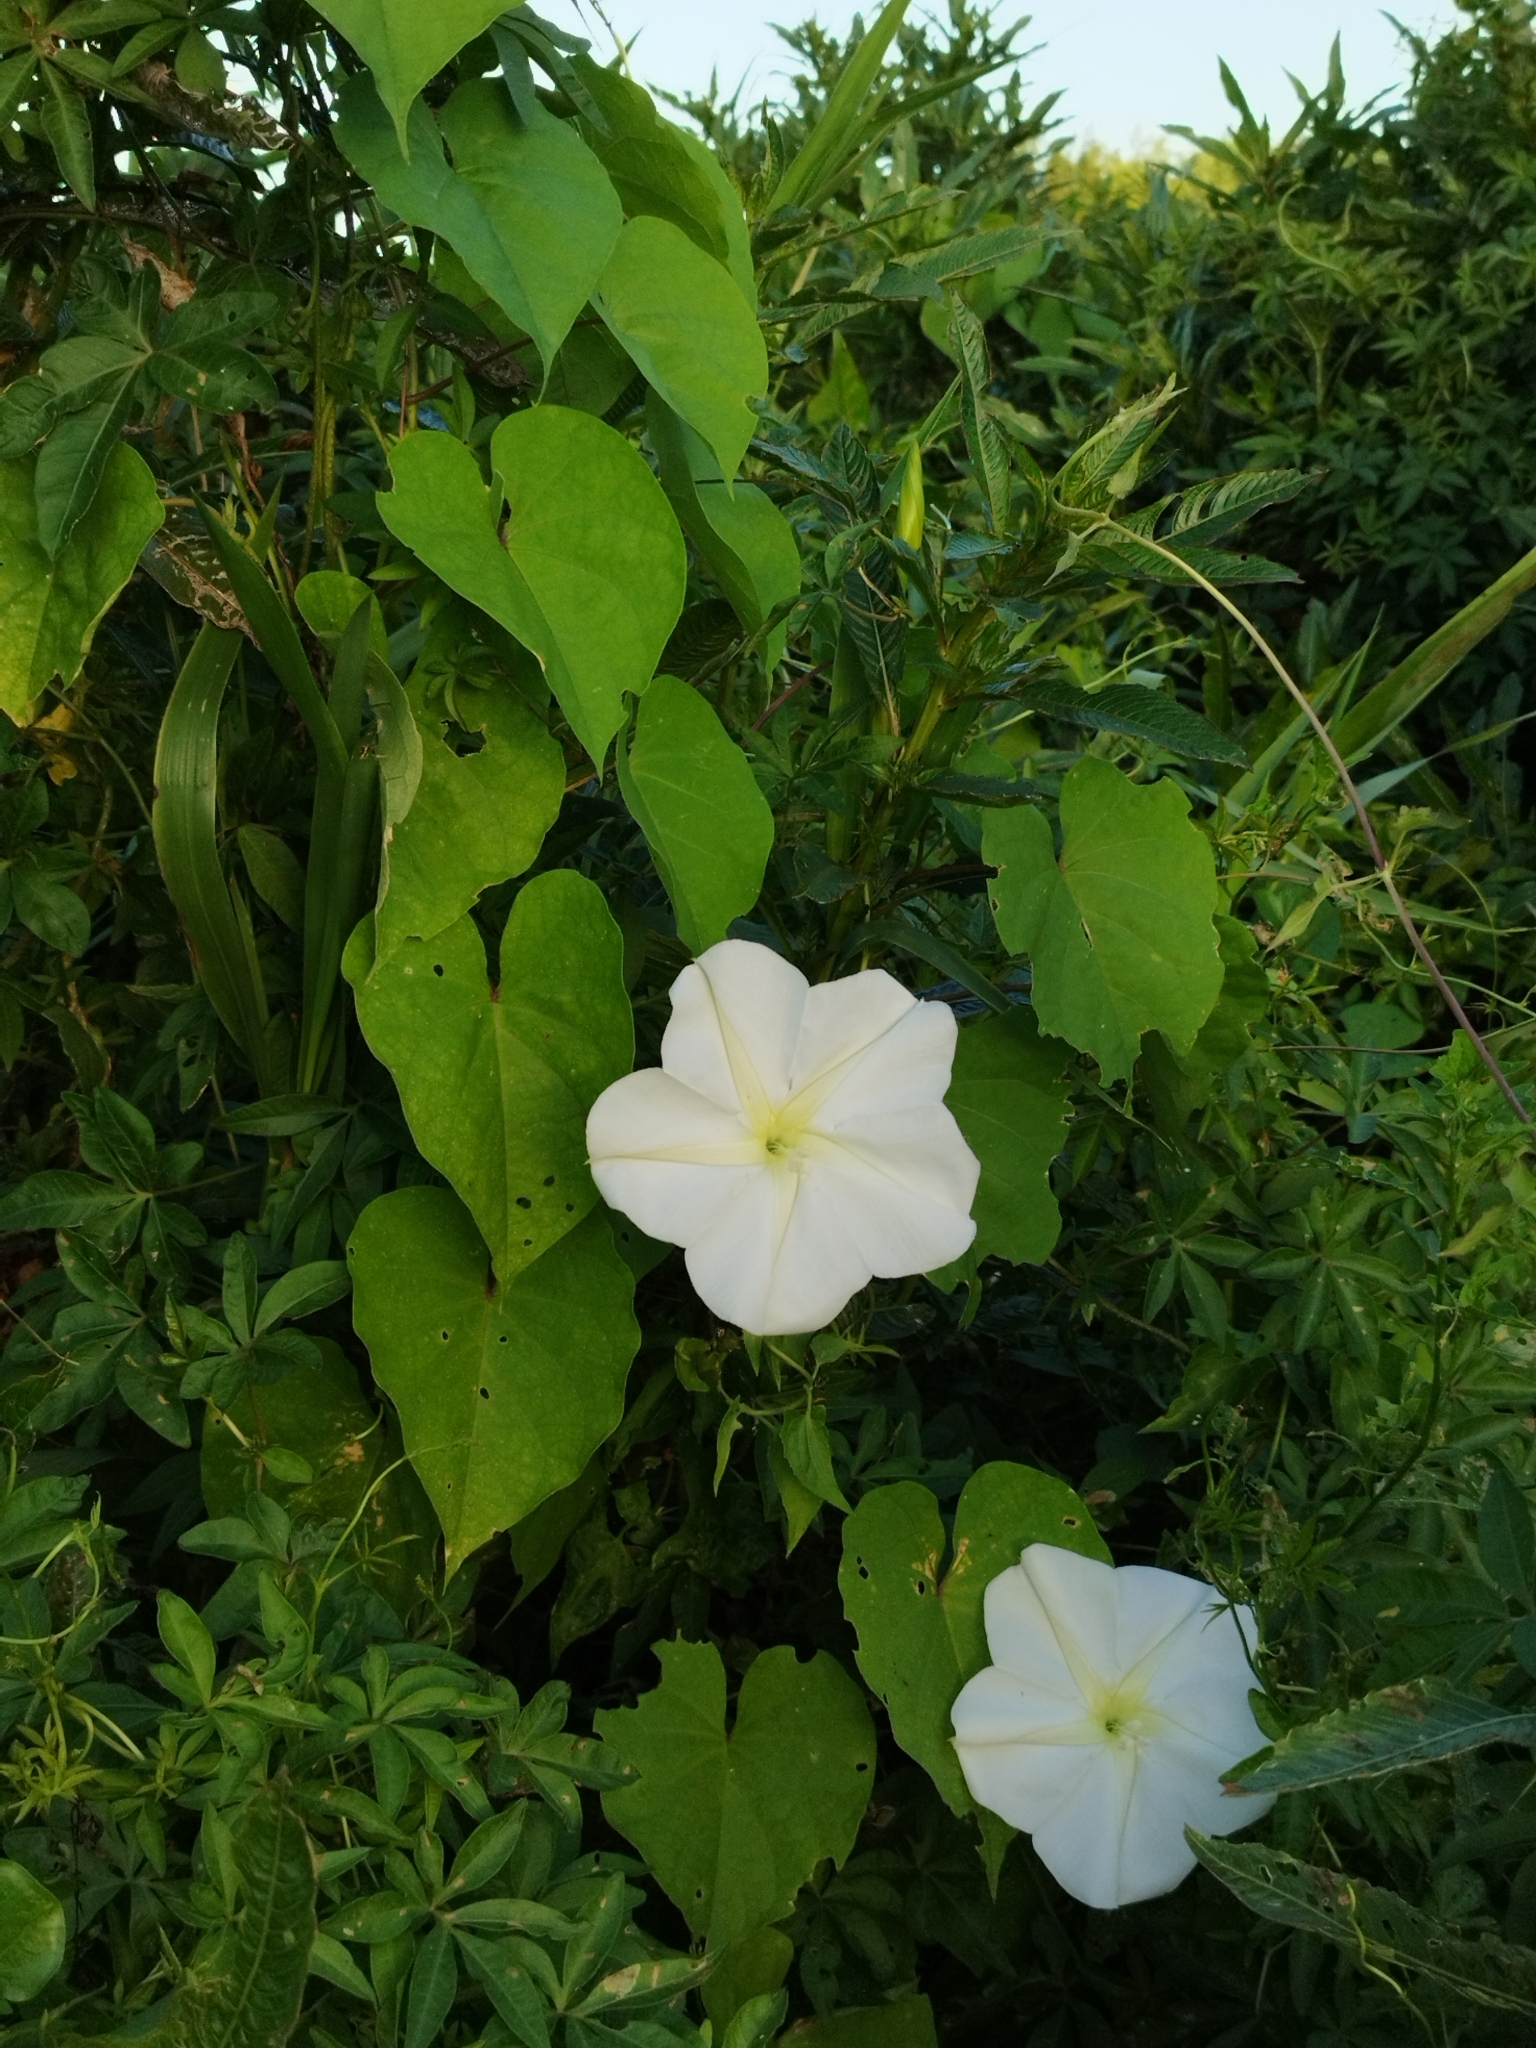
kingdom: Plantae
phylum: Tracheophyta
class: Magnoliopsida
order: Solanales
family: Convolvulaceae
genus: Ipomoea
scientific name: Ipomoea alba
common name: Moonflower
